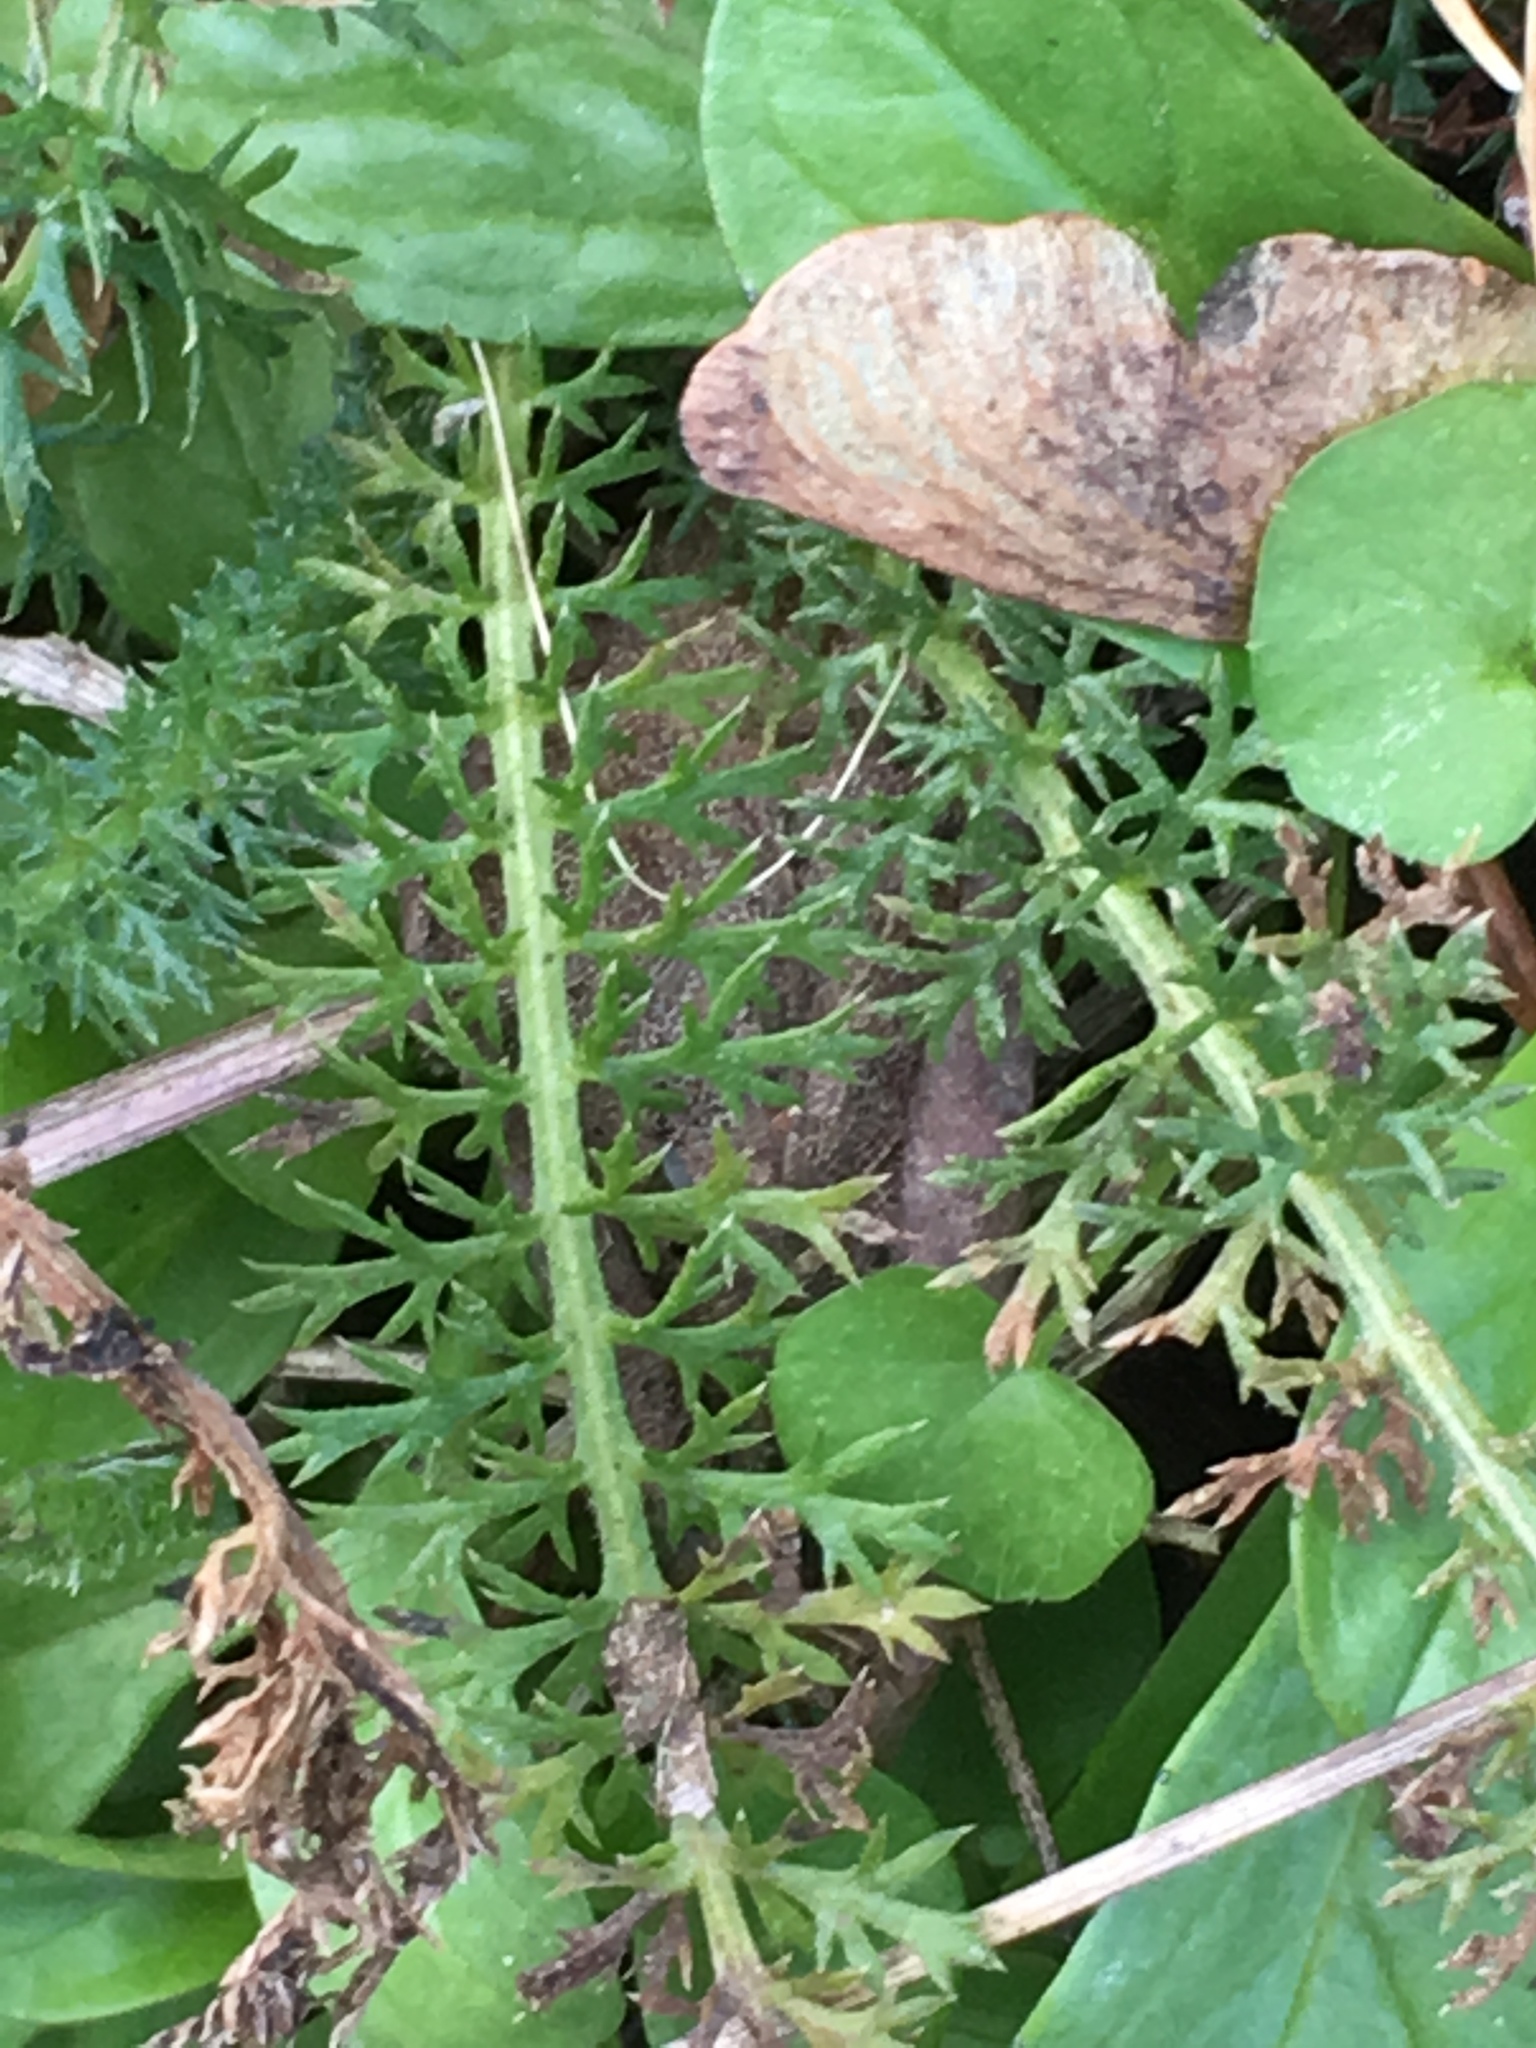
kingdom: Plantae
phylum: Tracheophyta
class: Magnoliopsida
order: Asterales
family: Asteraceae
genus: Achillea
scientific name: Achillea millefolium
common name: Yarrow
